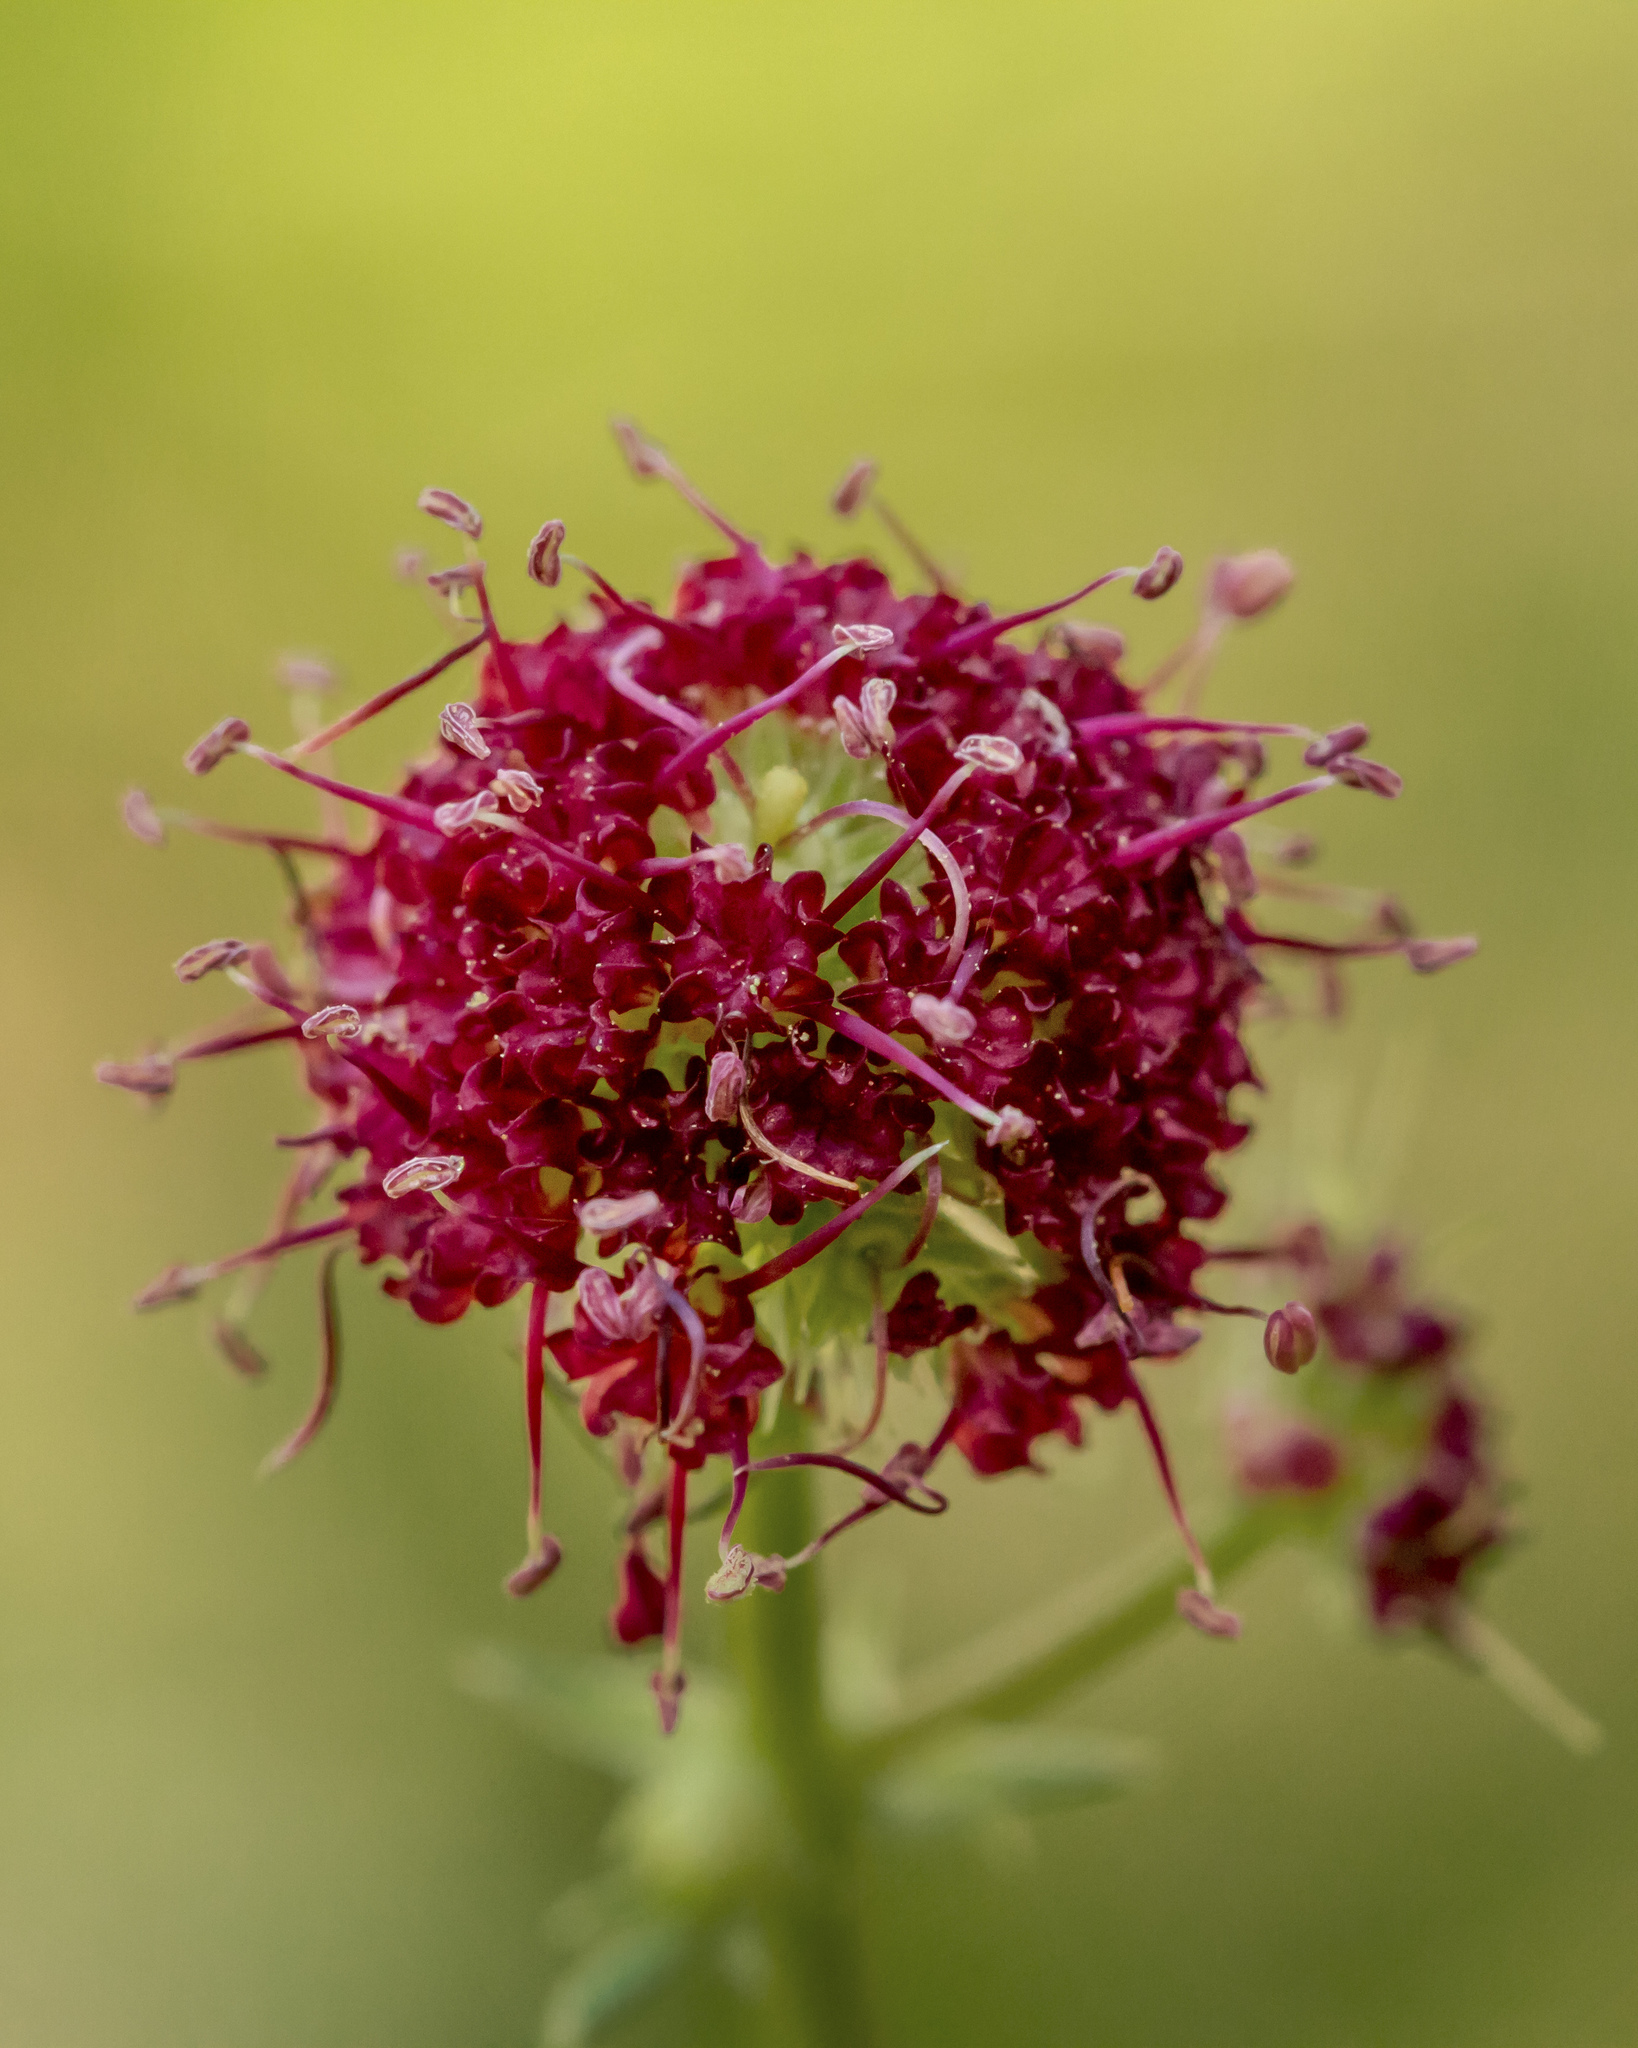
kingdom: Plantae
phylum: Tracheophyta
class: Magnoliopsida
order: Apiales
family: Apiaceae
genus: Sanicula
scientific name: Sanicula bipinnatifida
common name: Shoe-buttons
